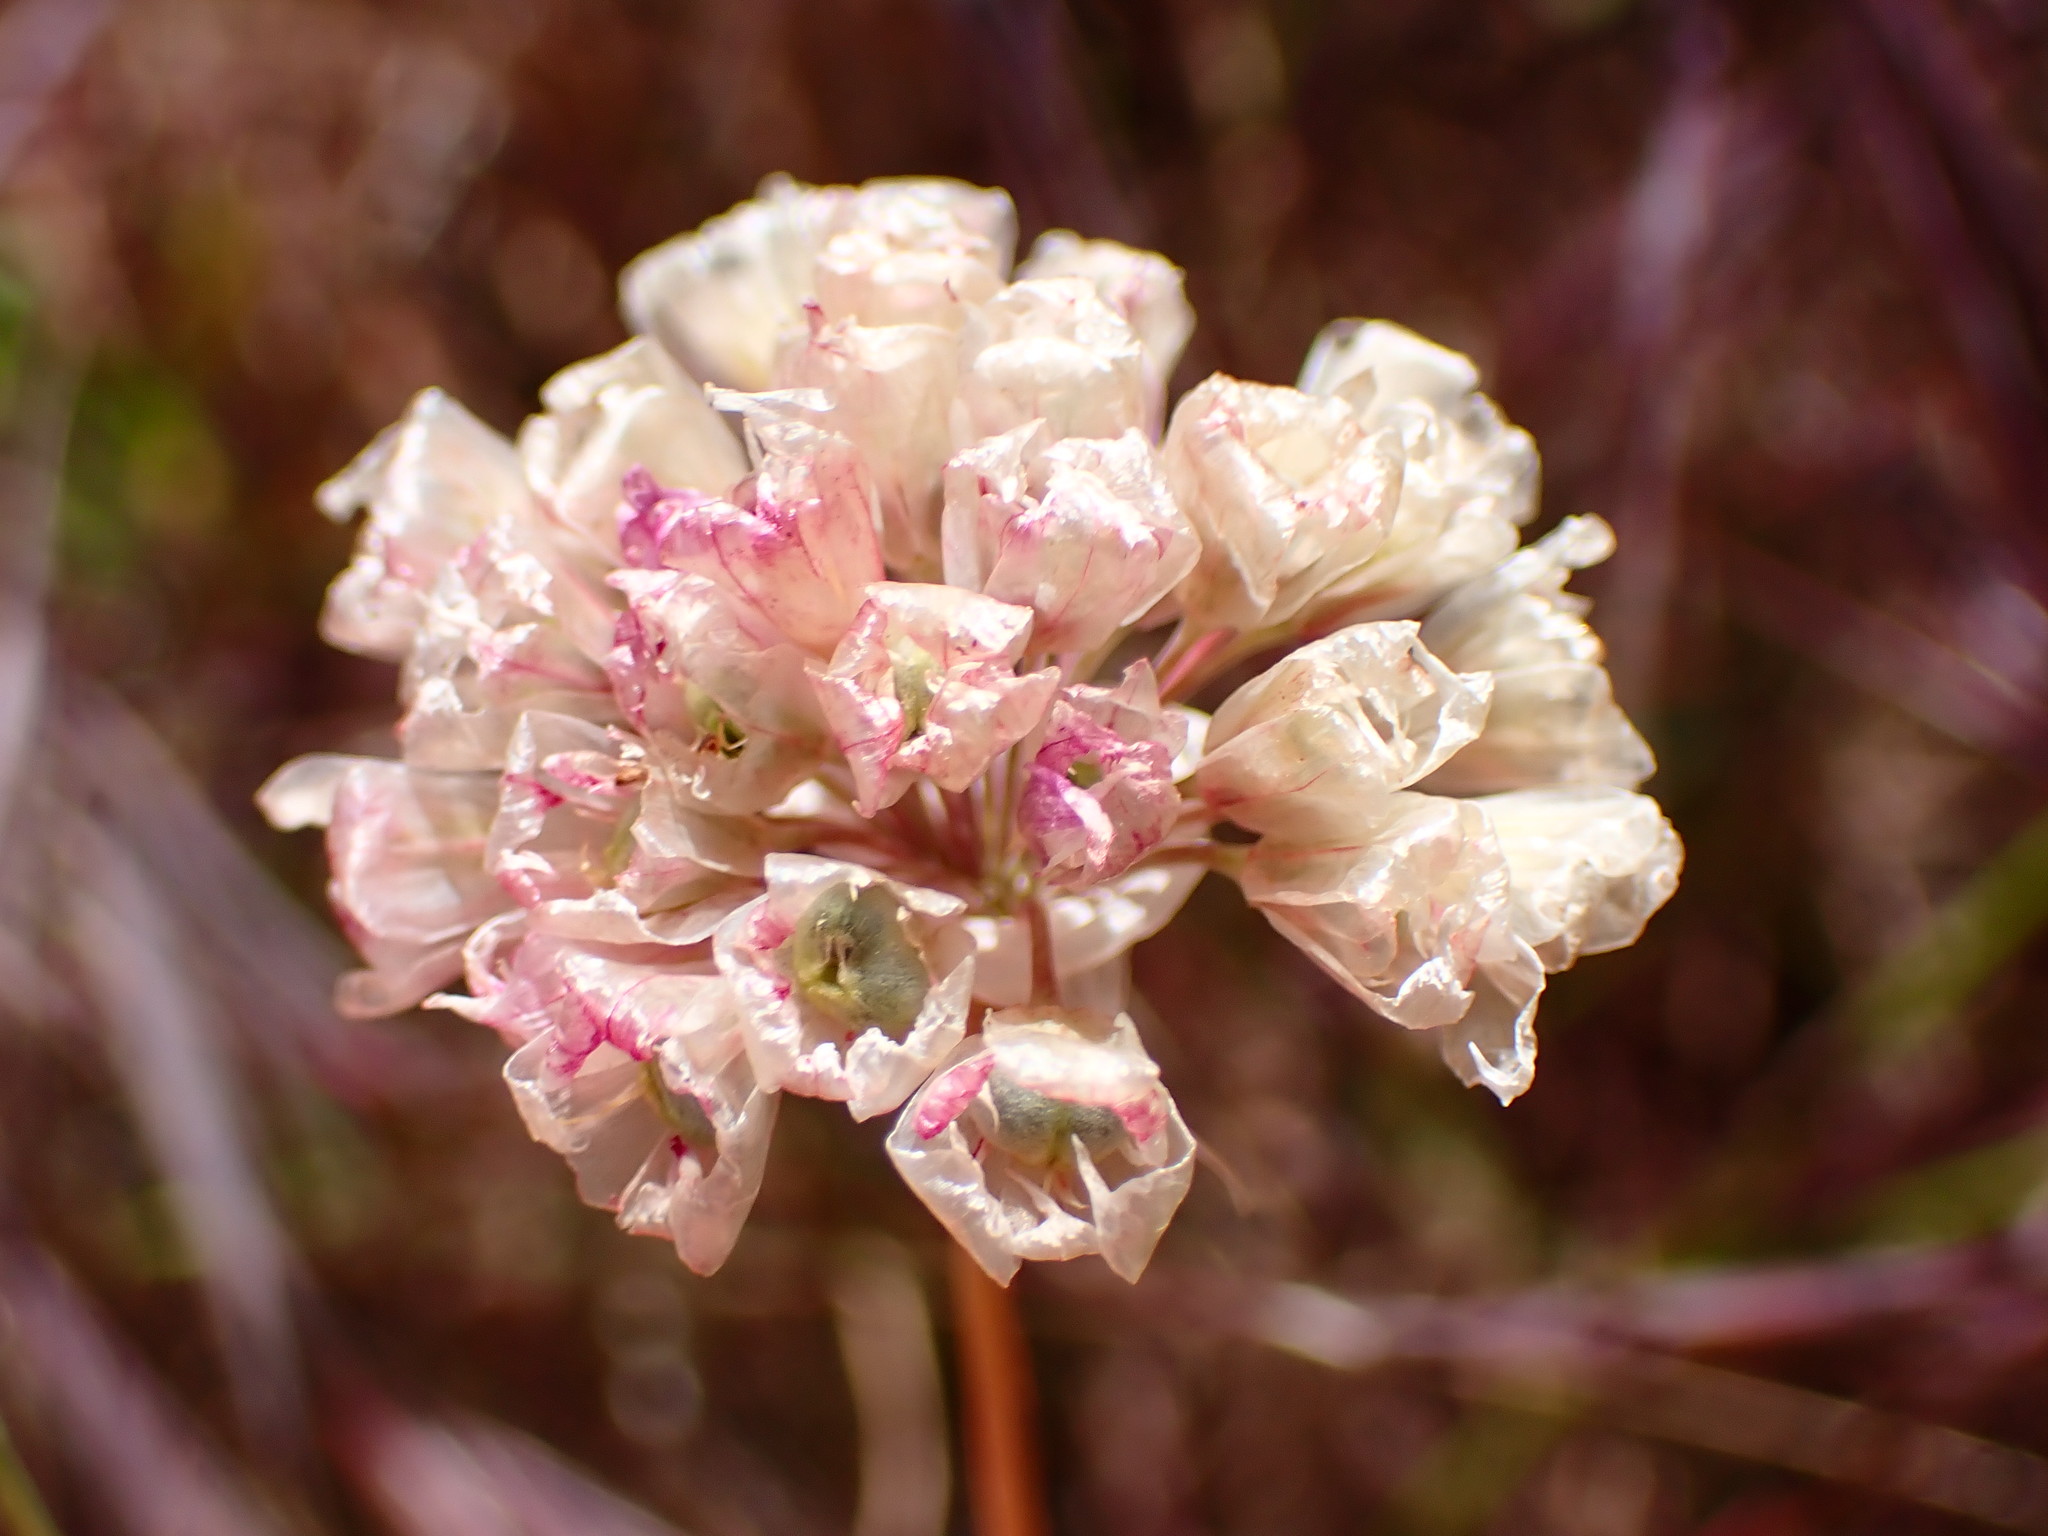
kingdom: Plantae
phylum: Tracheophyta
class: Liliopsida
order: Asparagales
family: Amaryllidaceae
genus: Allium
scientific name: Allium serra
